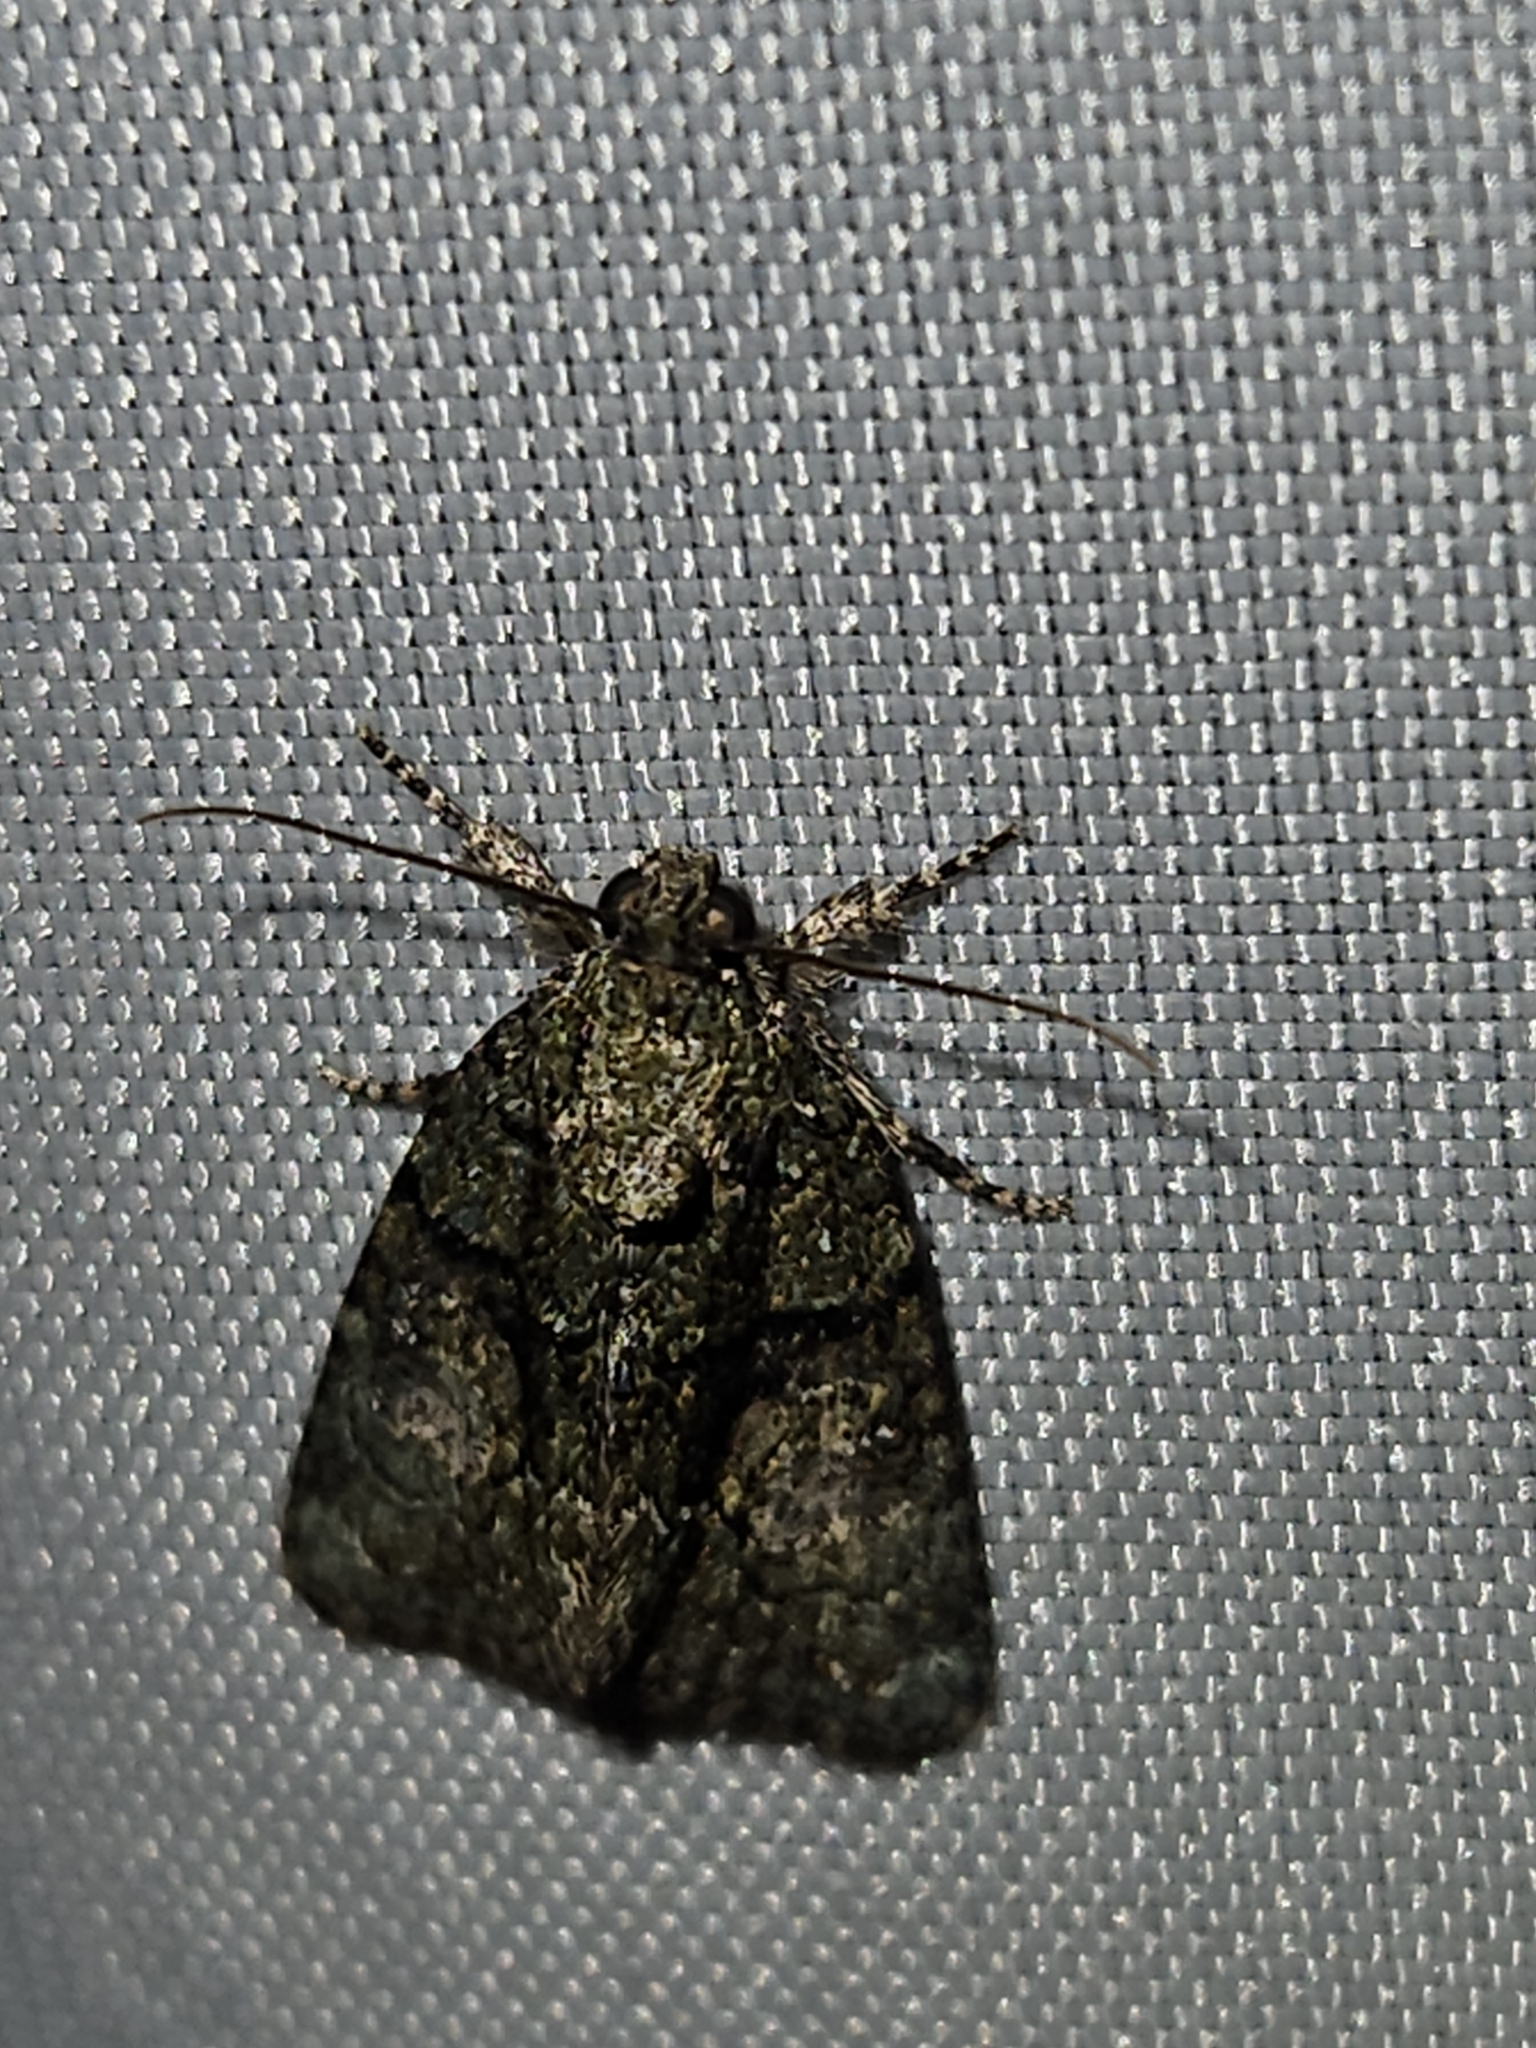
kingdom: Animalia
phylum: Arthropoda
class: Insecta
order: Lepidoptera
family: Noctuidae
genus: Cryphia
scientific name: Cryphia algae
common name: Tree-lichen beauty
